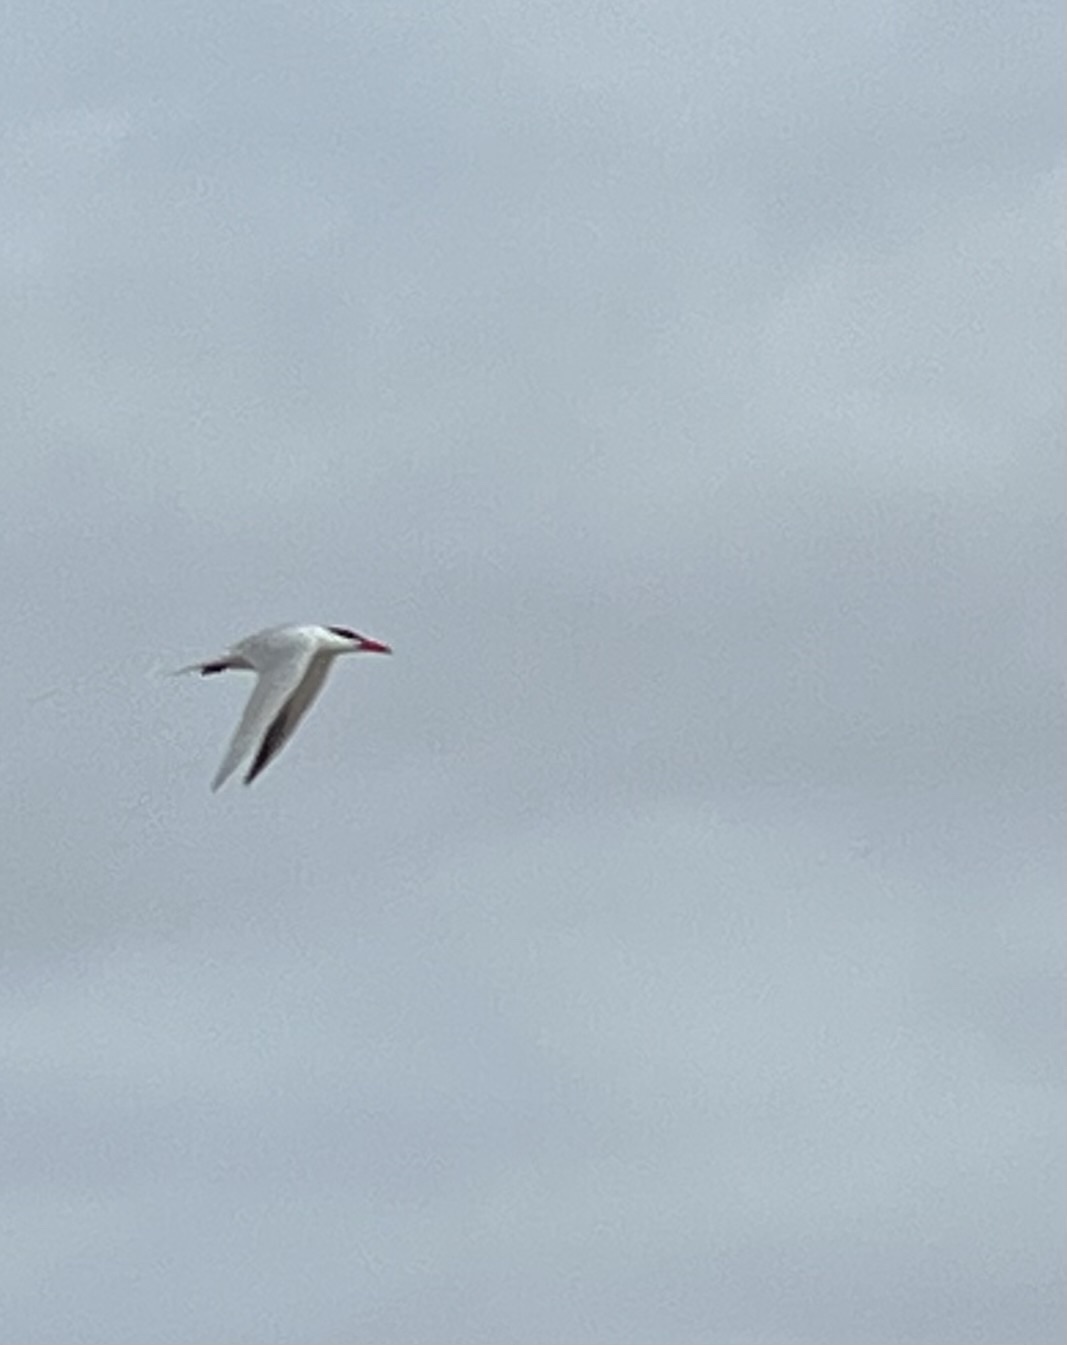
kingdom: Animalia
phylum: Chordata
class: Aves
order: Charadriiformes
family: Laridae
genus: Hydroprogne
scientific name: Hydroprogne caspia
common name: Caspian tern
